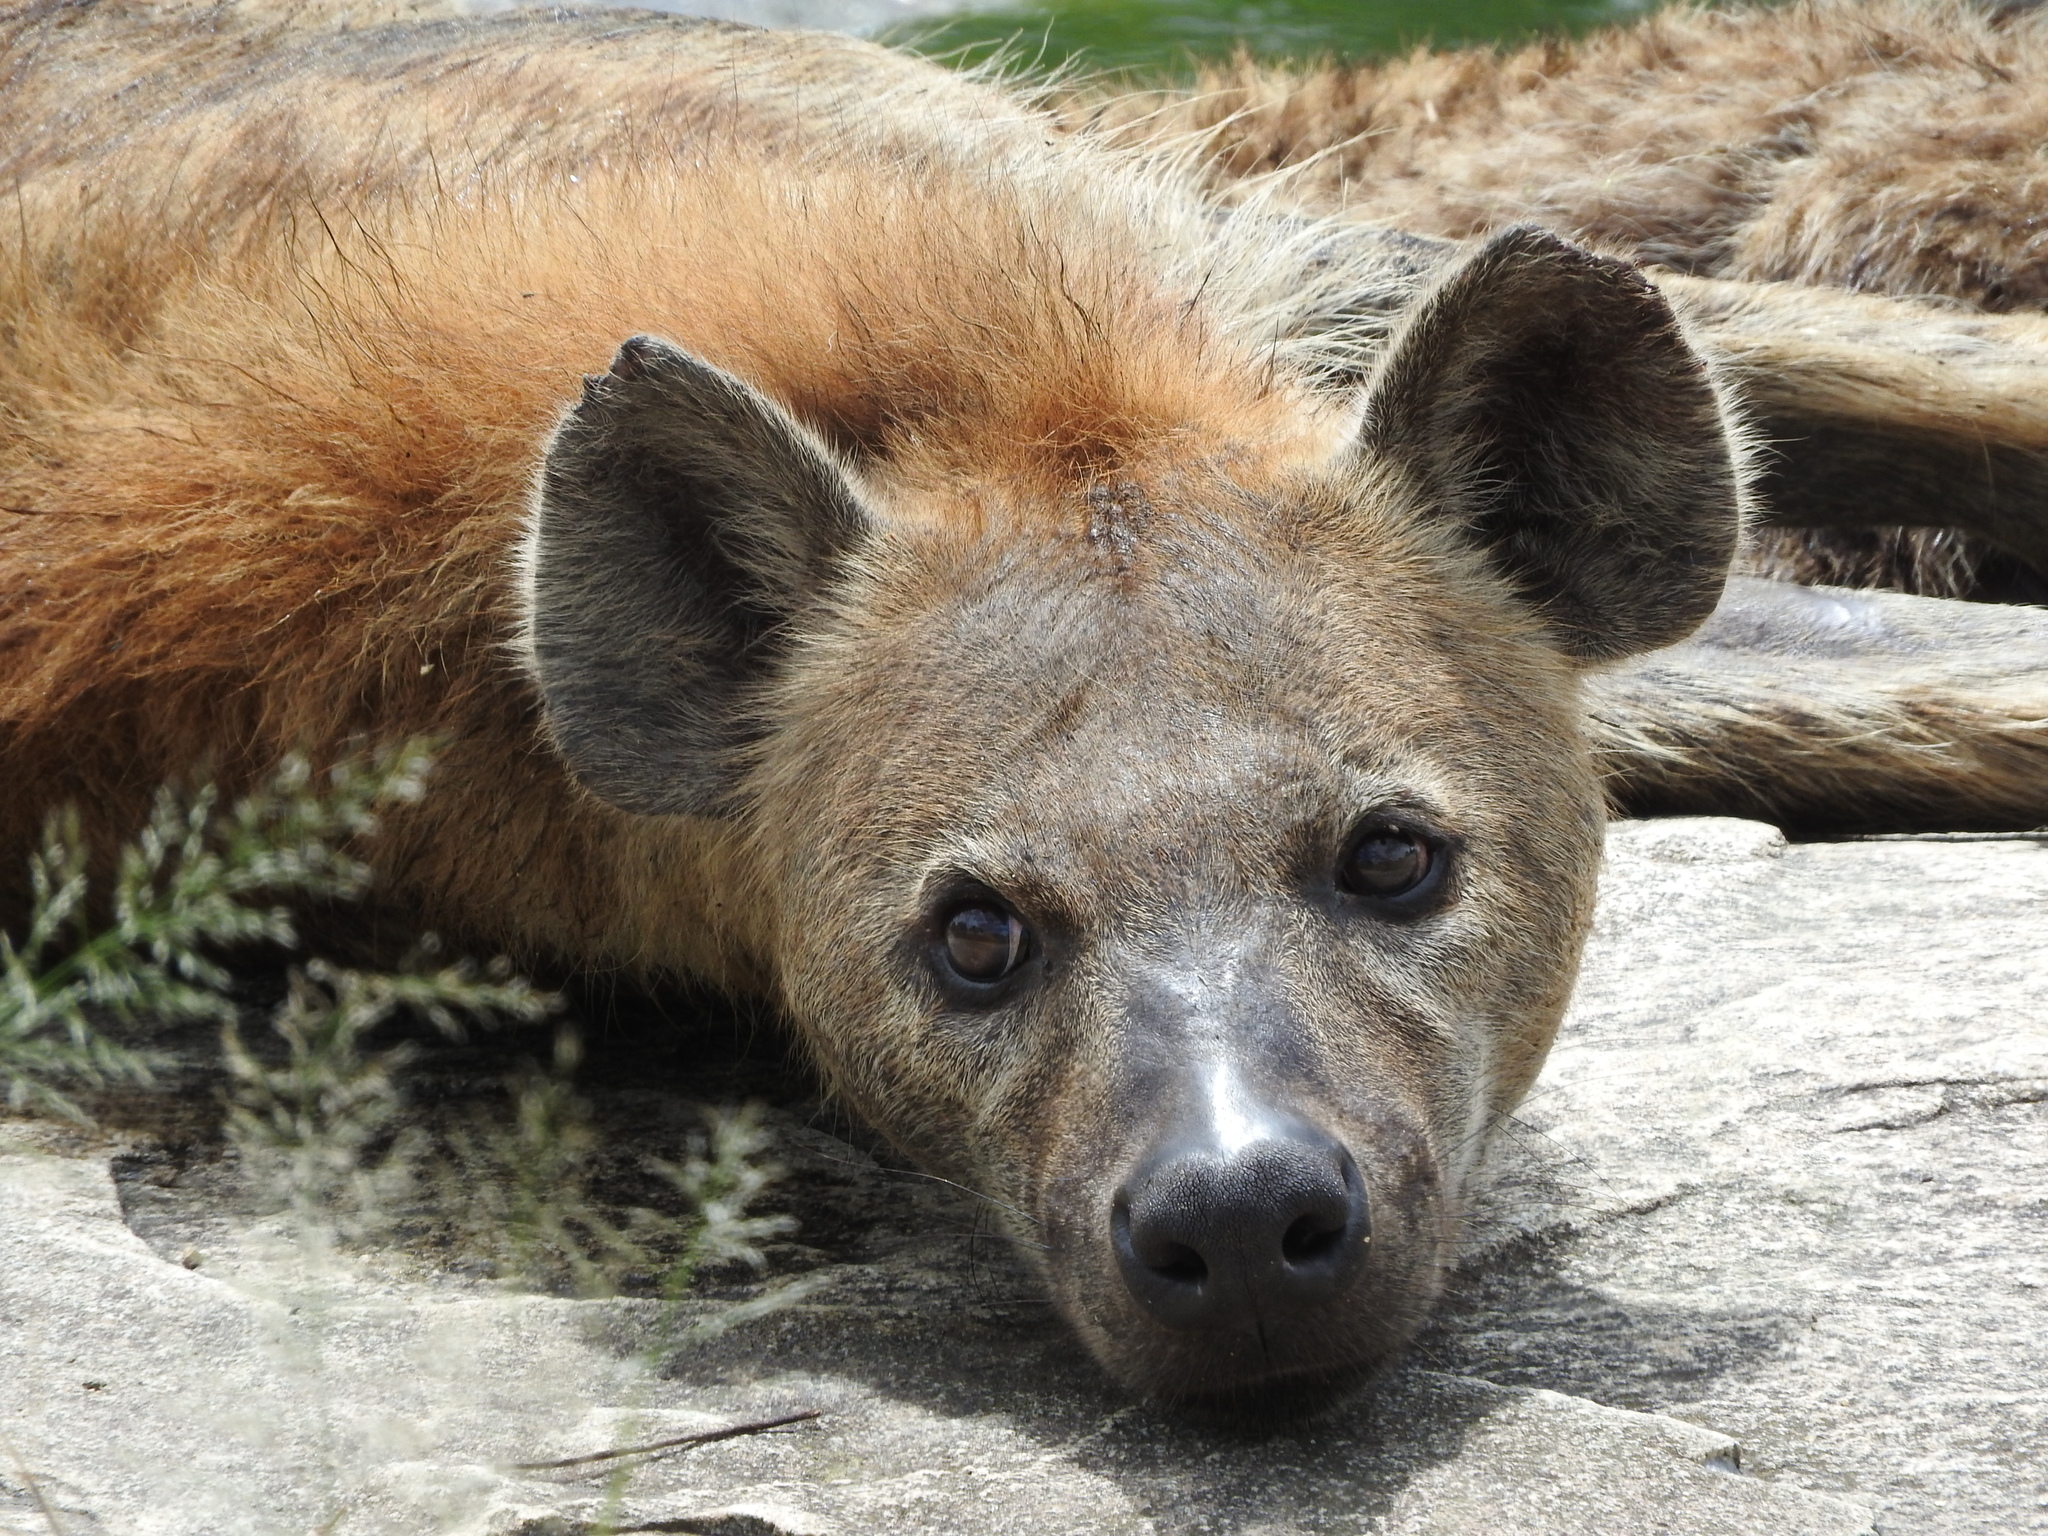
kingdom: Animalia
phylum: Chordata
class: Mammalia
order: Carnivora
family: Hyaenidae
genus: Crocuta
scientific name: Crocuta crocuta
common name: Spotted hyaena
